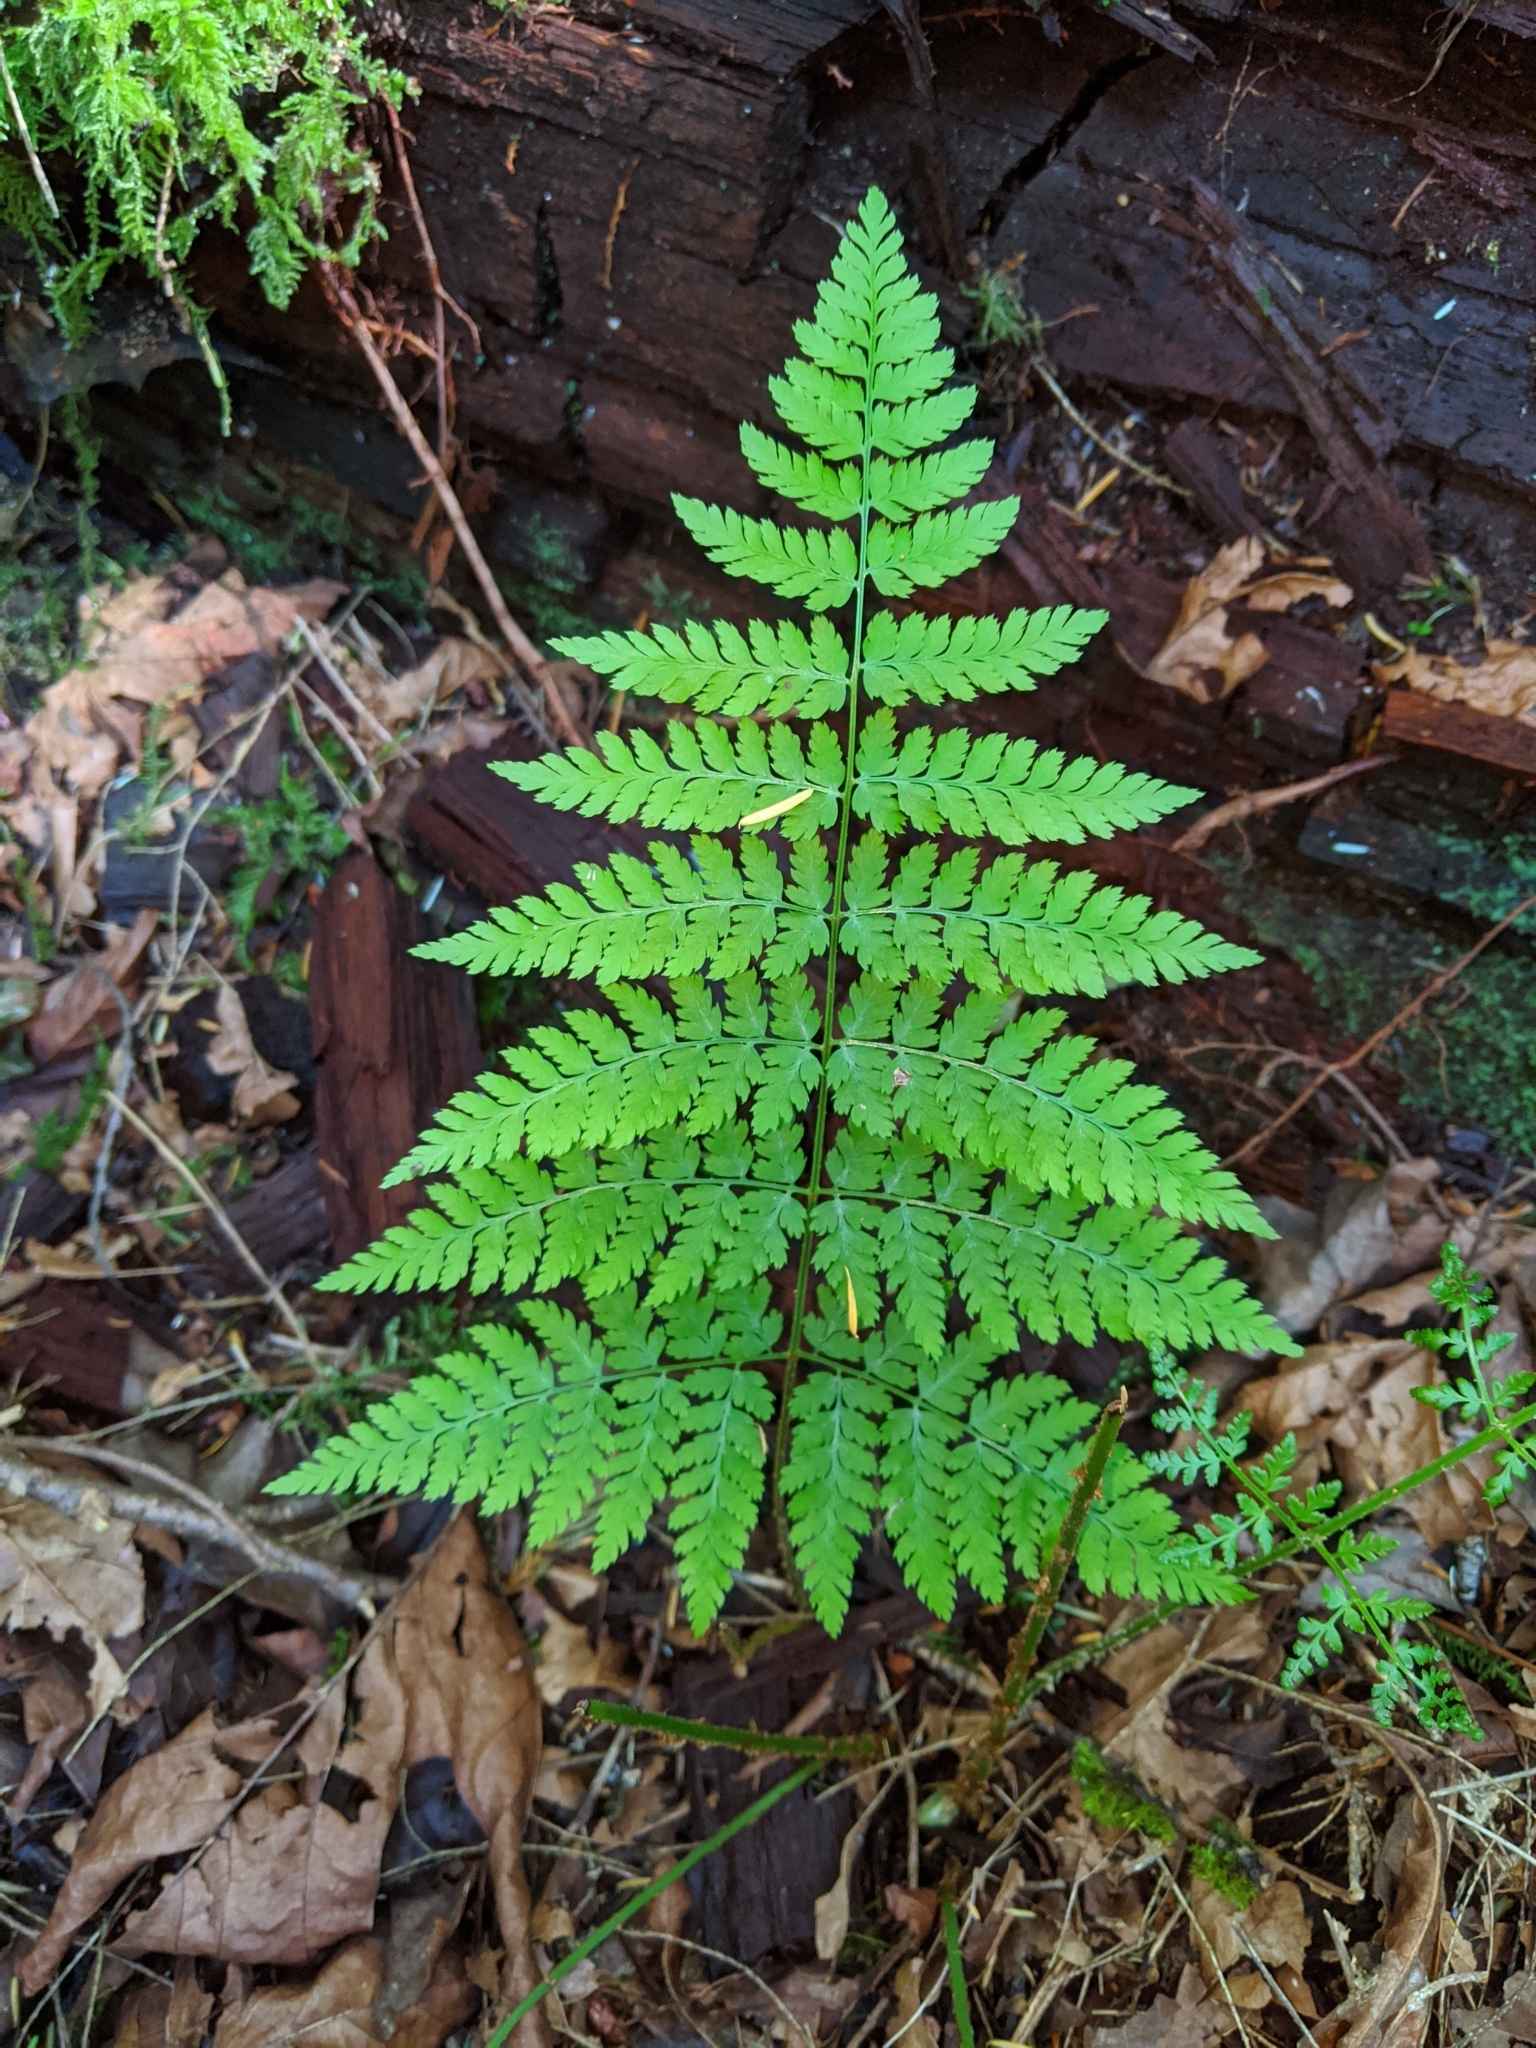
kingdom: Plantae
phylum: Tracheophyta
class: Polypodiopsida
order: Polypodiales
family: Dryopteridaceae
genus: Dryopteris
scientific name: Dryopteris expansa
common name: Northern buckler fern
